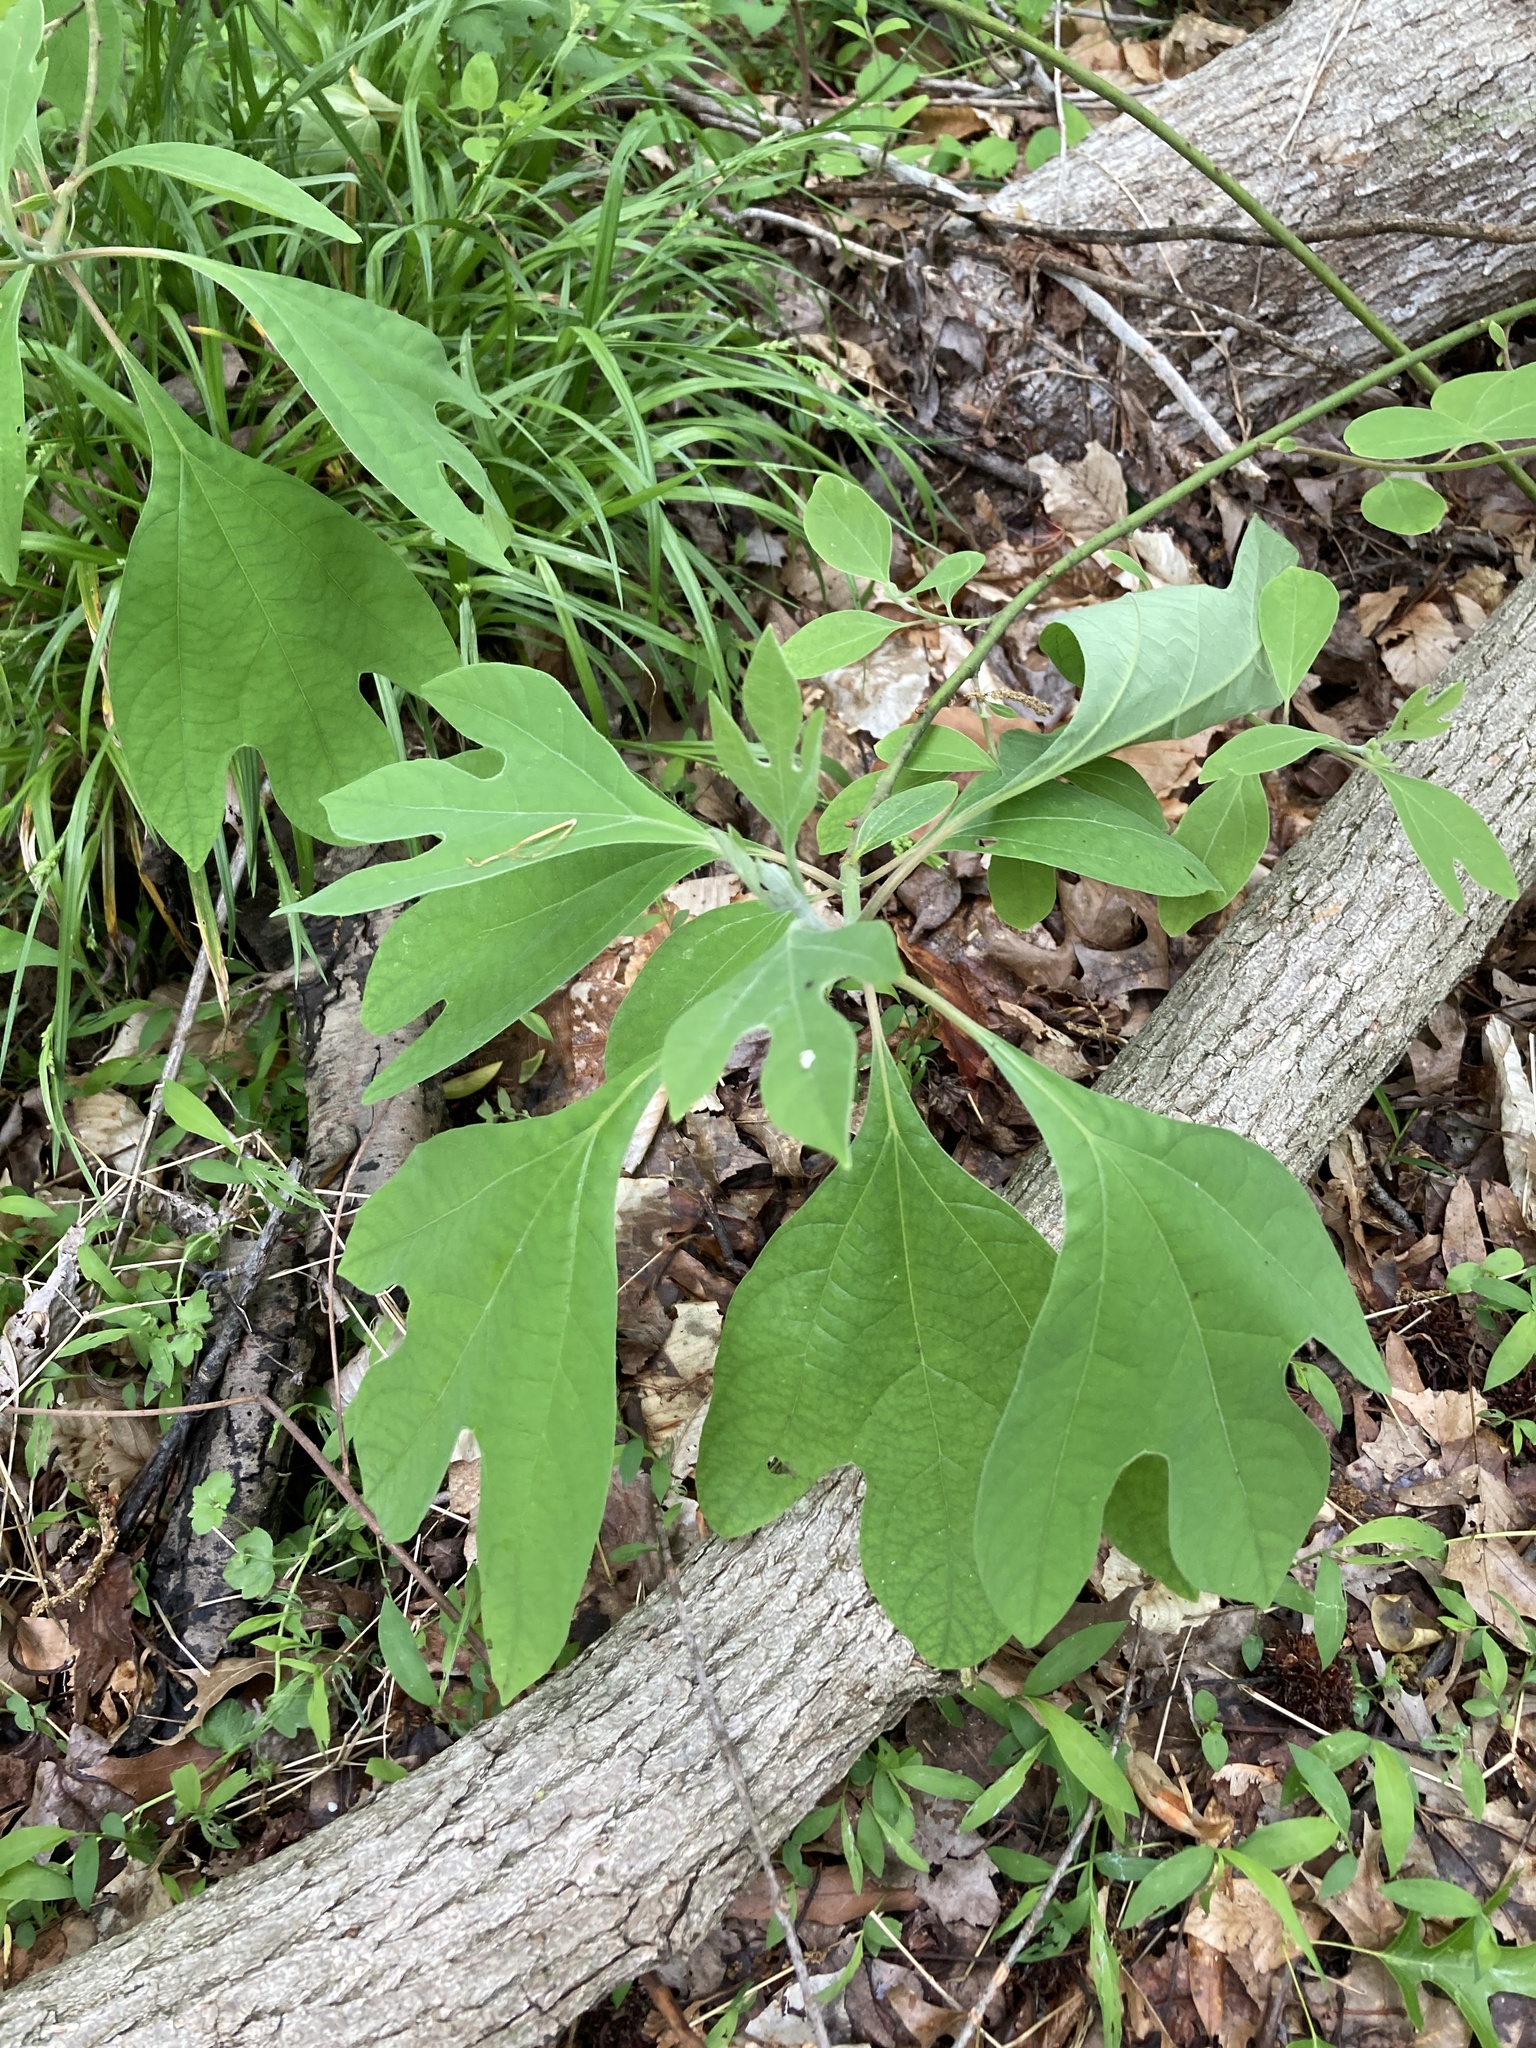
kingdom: Plantae
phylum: Tracheophyta
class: Magnoliopsida
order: Laurales
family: Lauraceae
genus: Sassafras
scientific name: Sassafras albidum
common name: Sassafras
